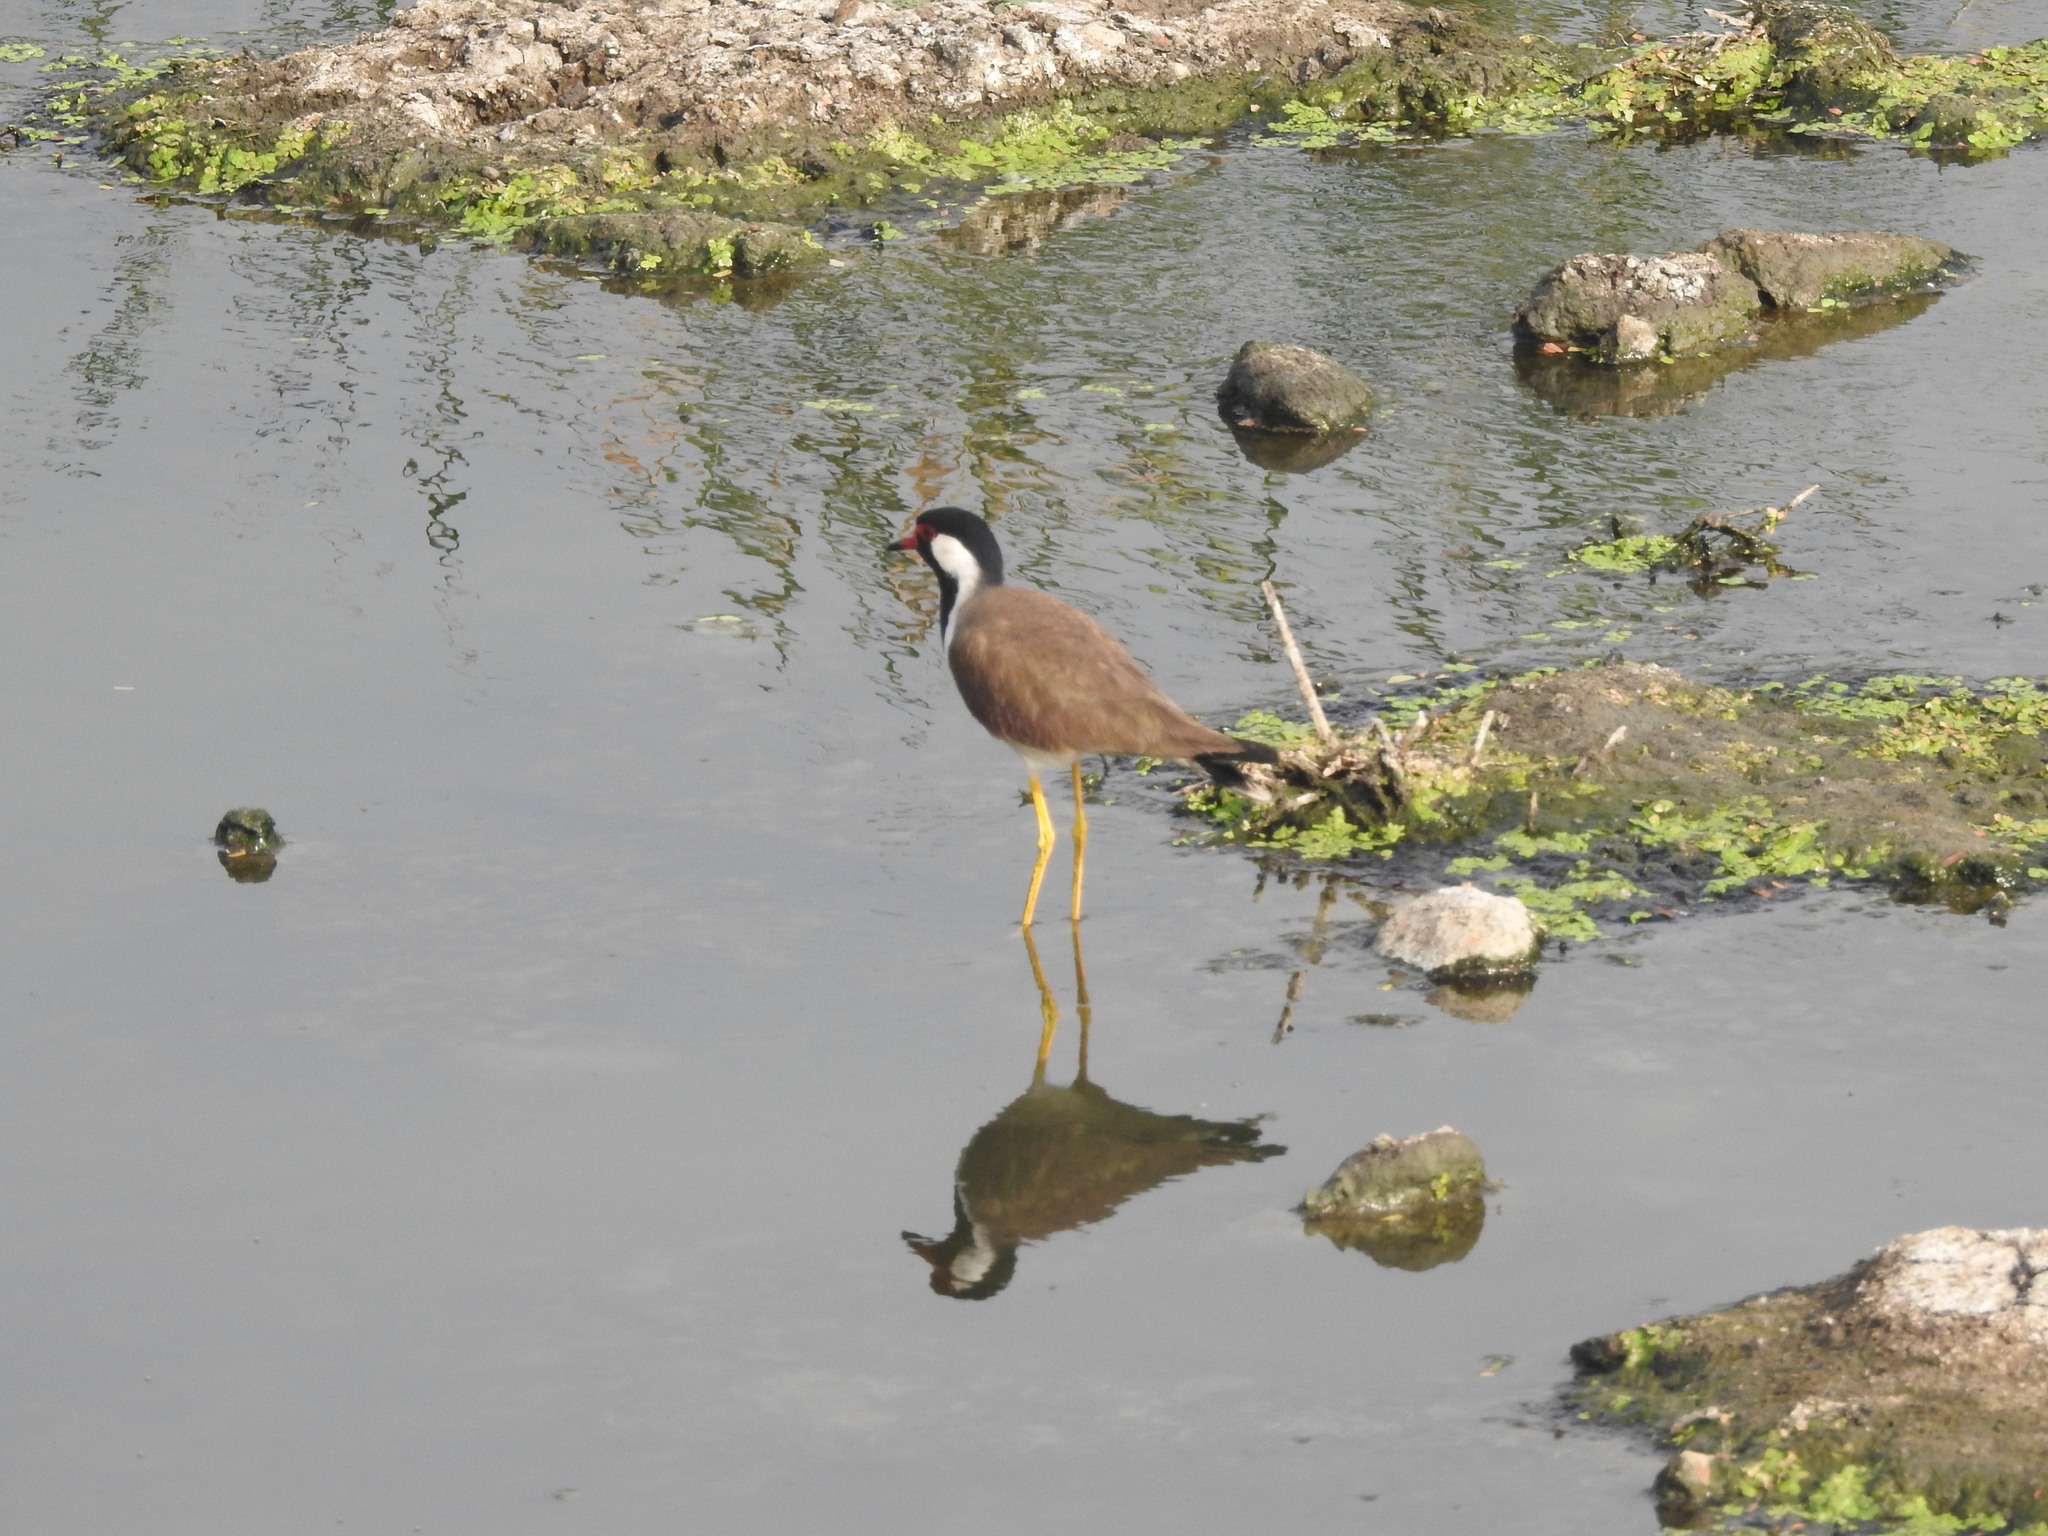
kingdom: Animalia
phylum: Chordata
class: Aves
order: Charadriiformes
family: Charadriidae
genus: Vanellus
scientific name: Vanellus indicus
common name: Red-wattled lapwing
